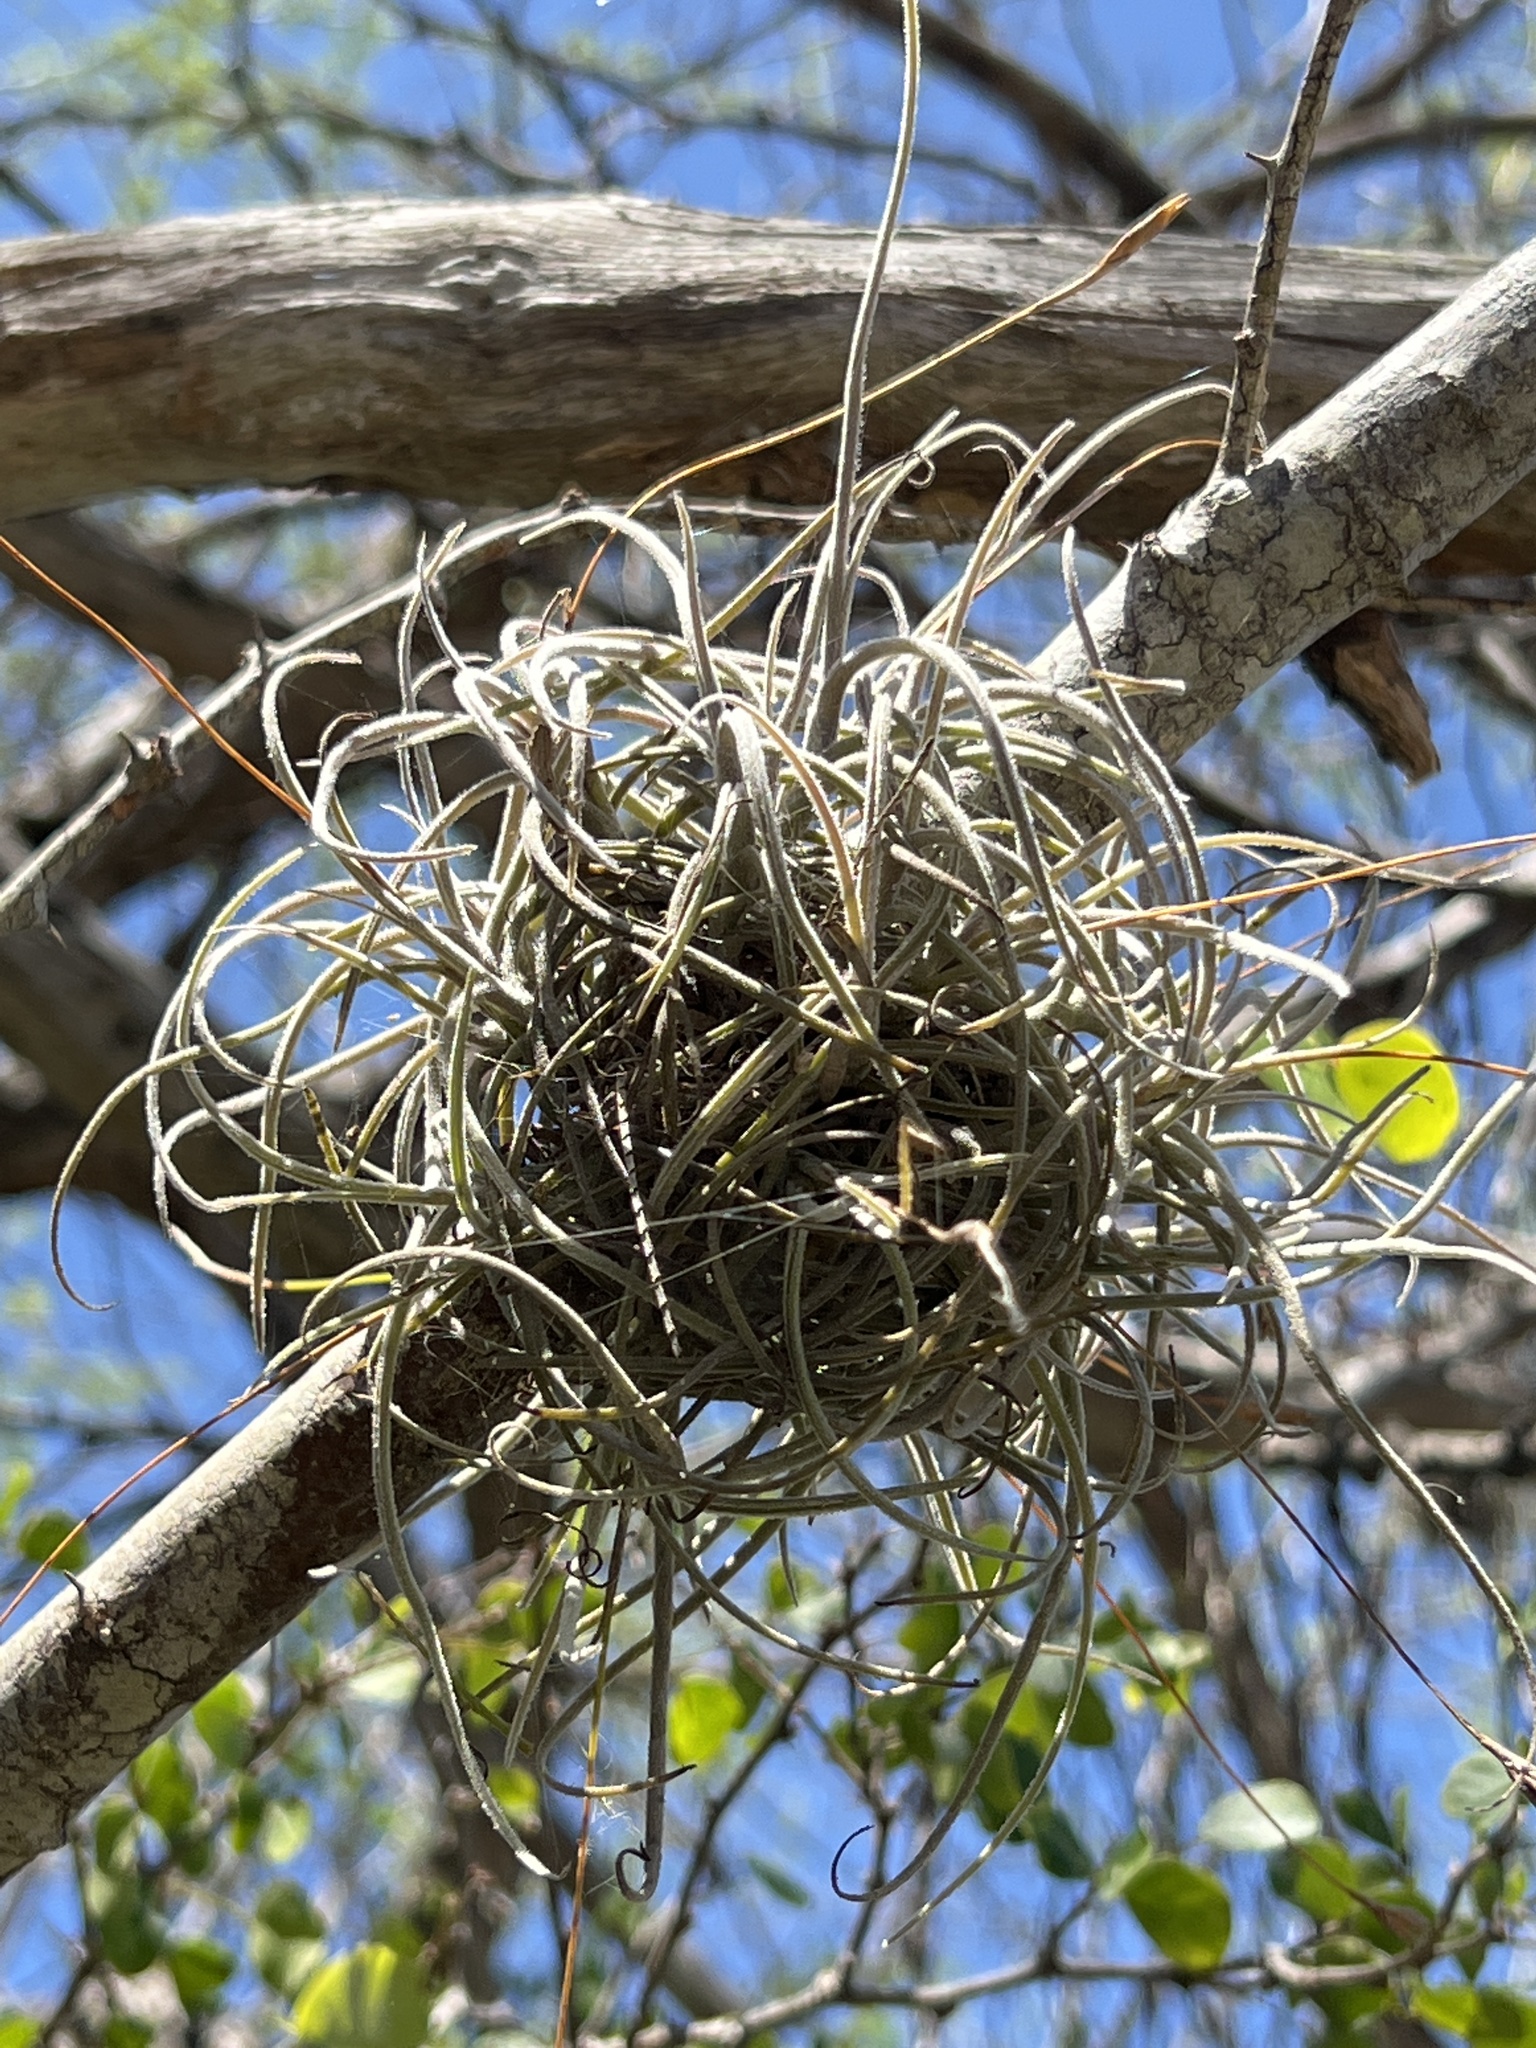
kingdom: Plantae
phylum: Tracheophyta
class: Liliopsida
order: Poales
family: Bromeliaceae
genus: Tillandsia
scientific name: Tillandsia recurvata
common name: Small ballmoss
